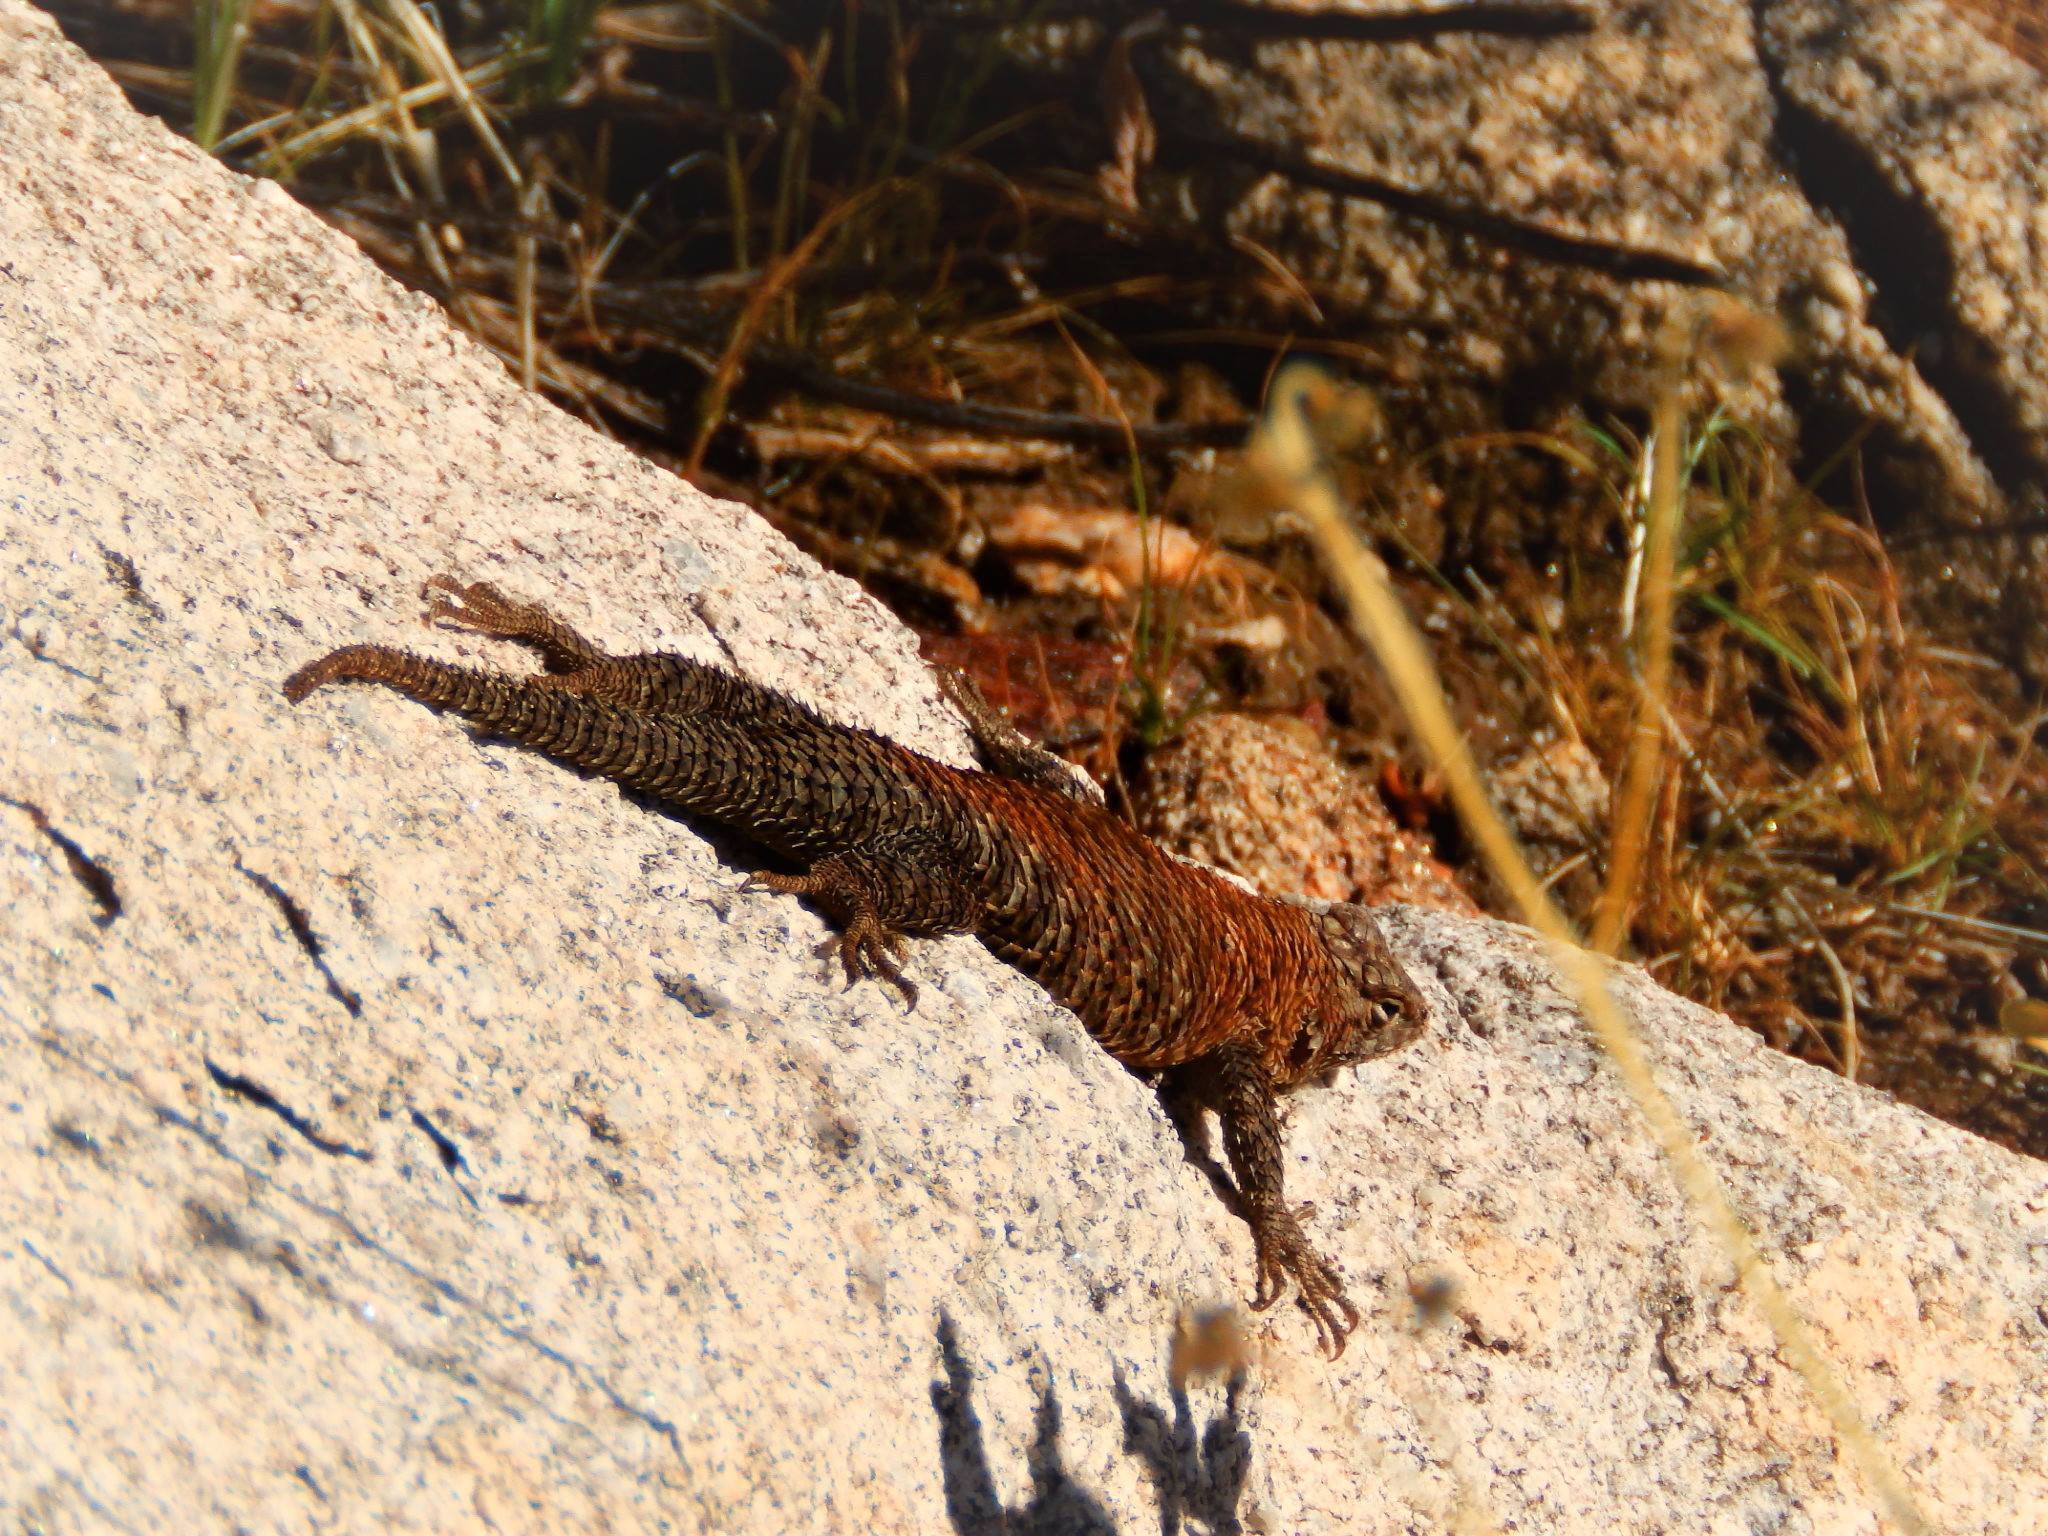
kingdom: Animalia
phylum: Chordata
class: Squamata
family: Phrynosomatidae
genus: Sceloporus
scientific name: Sceloporus orcutti
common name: Granite spiny lizard
